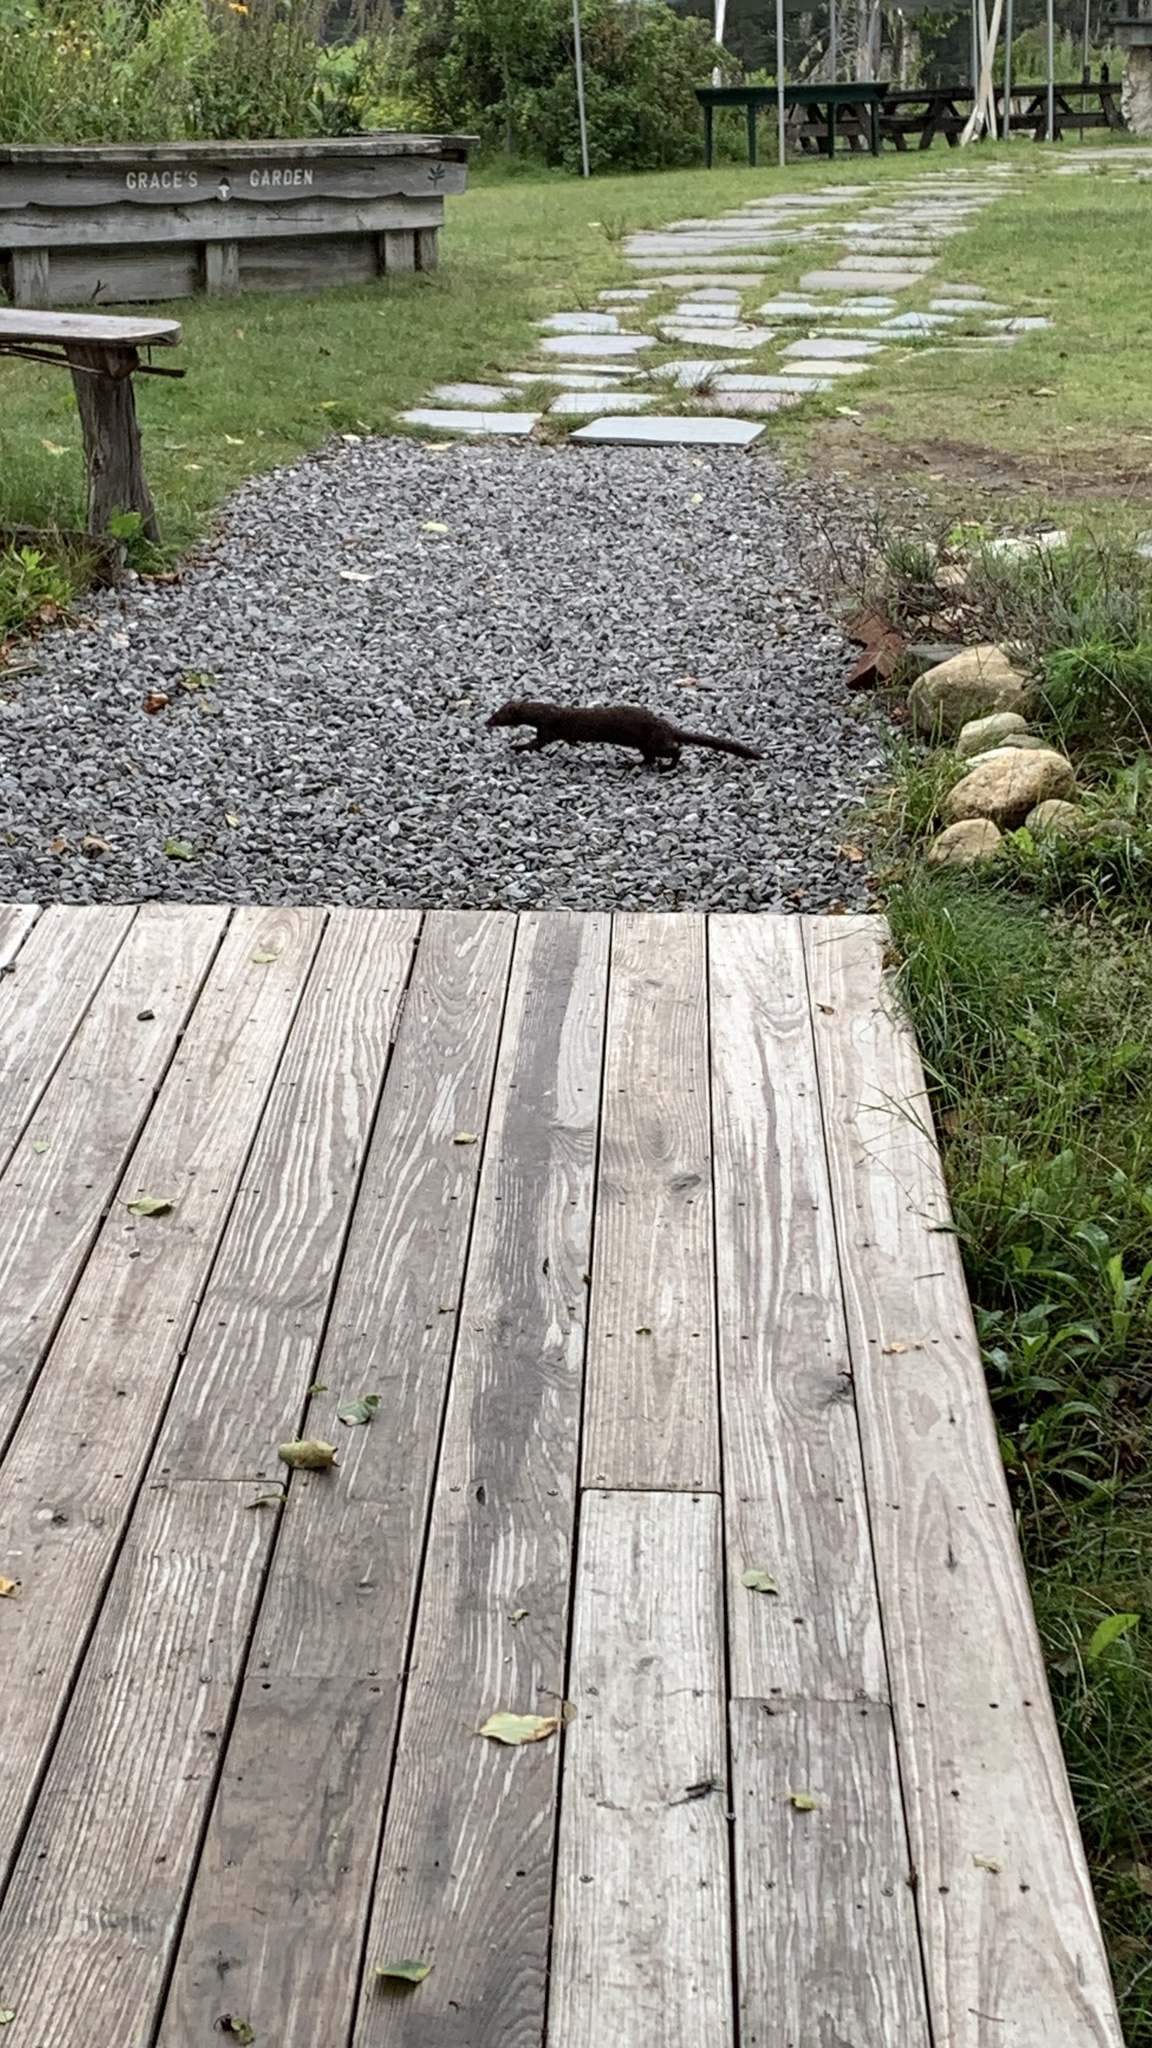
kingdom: Animalia
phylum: Chordata
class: Mammalia
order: Carnivora
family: Mustelidae
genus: Mustela
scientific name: Mustela
